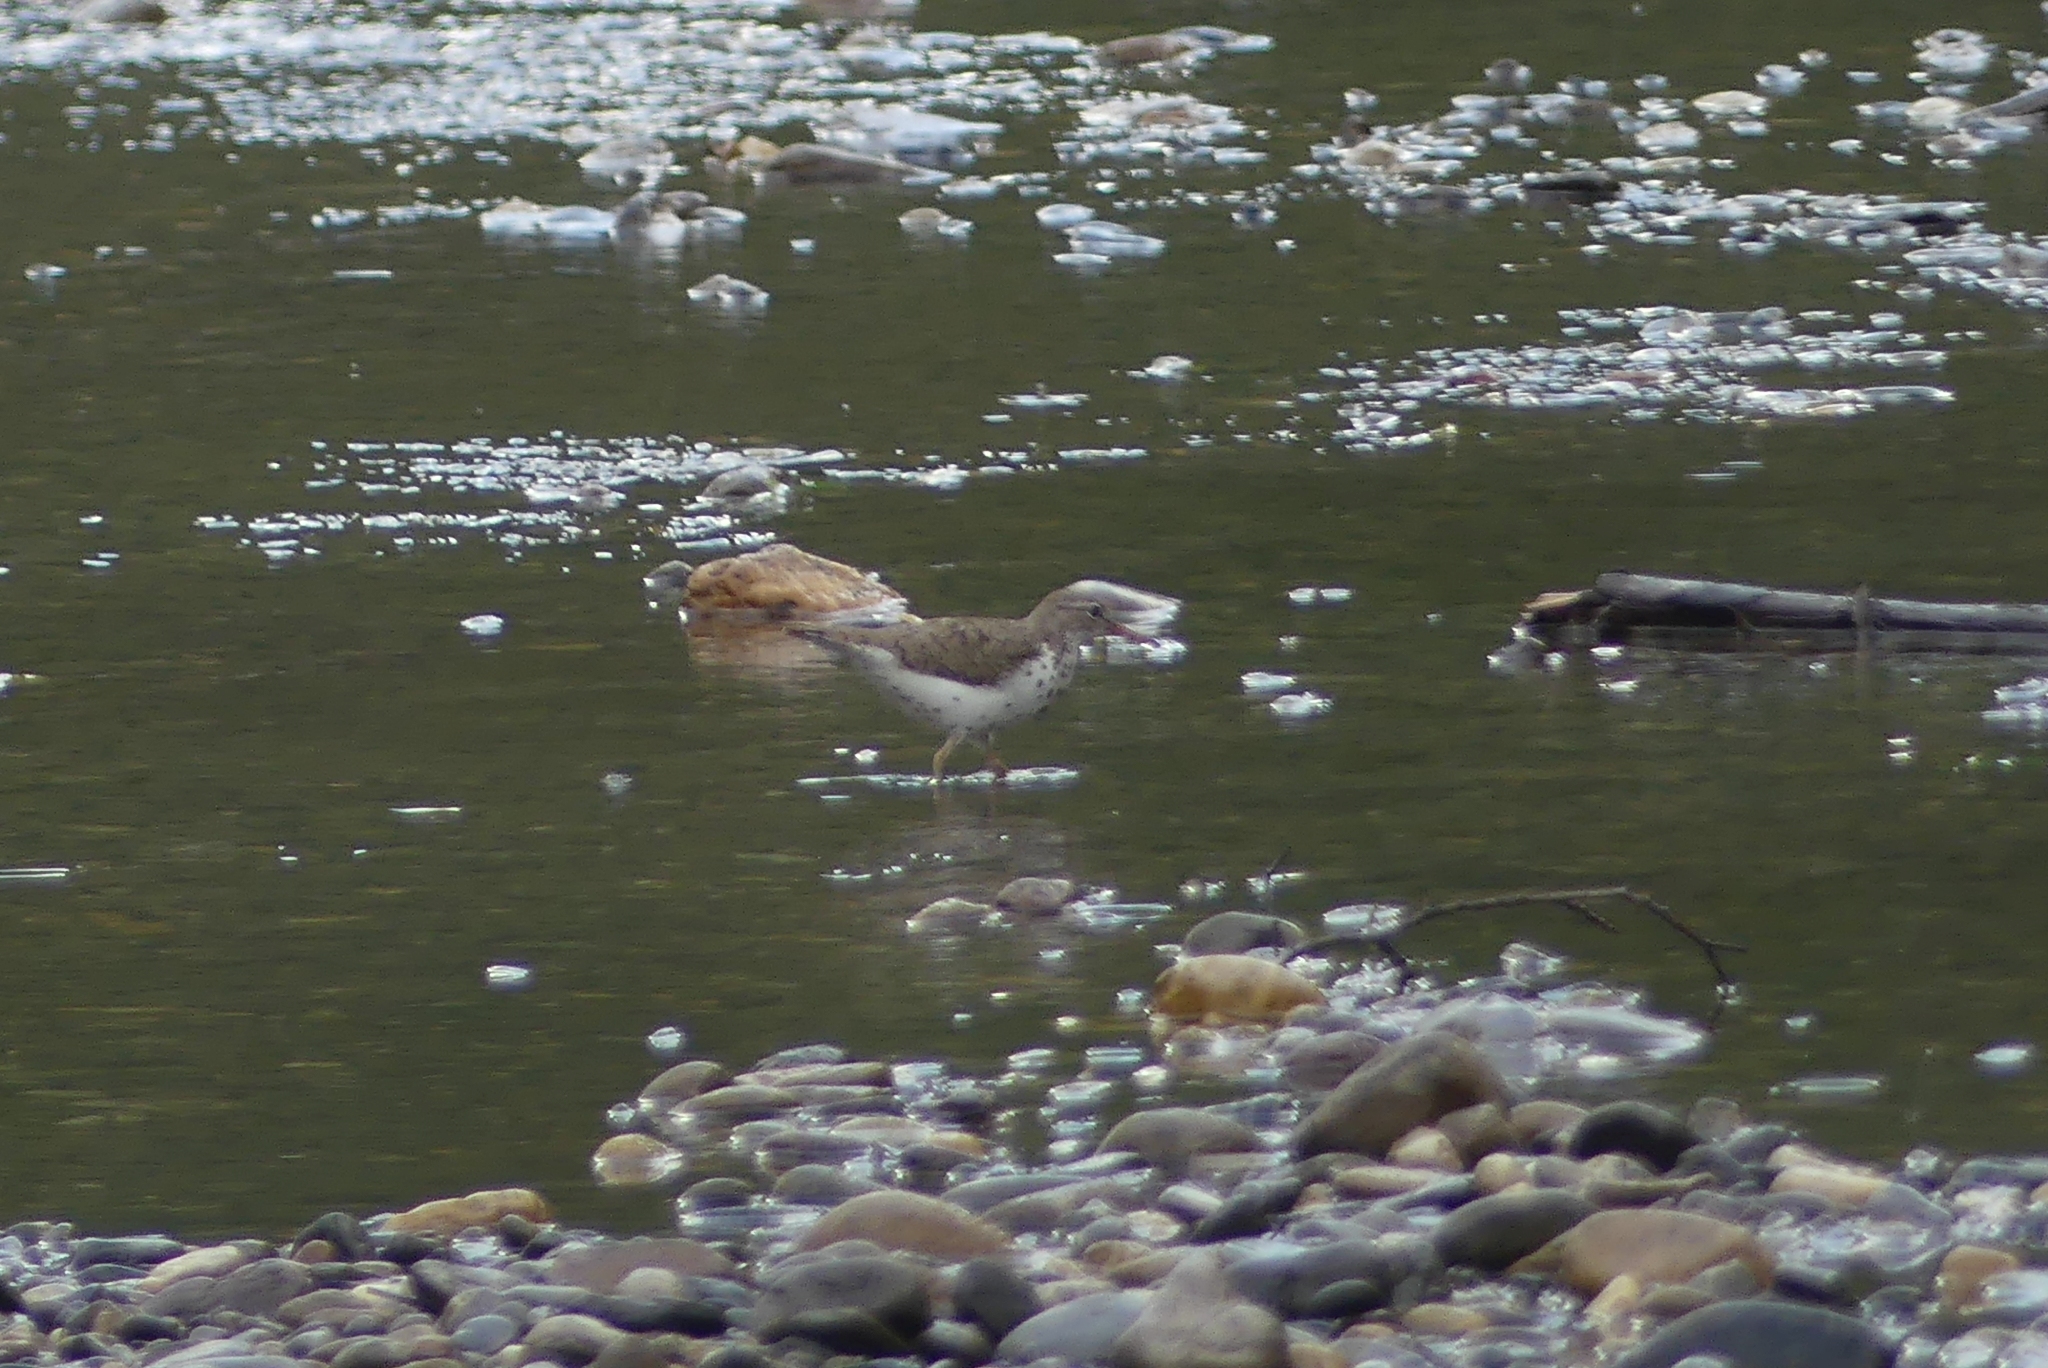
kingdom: Animalia
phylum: Chordata
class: Aves
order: Charadriiformes
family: Scolopacidae
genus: Actitis
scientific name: Actitis macularius
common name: Spotted sandpiper
